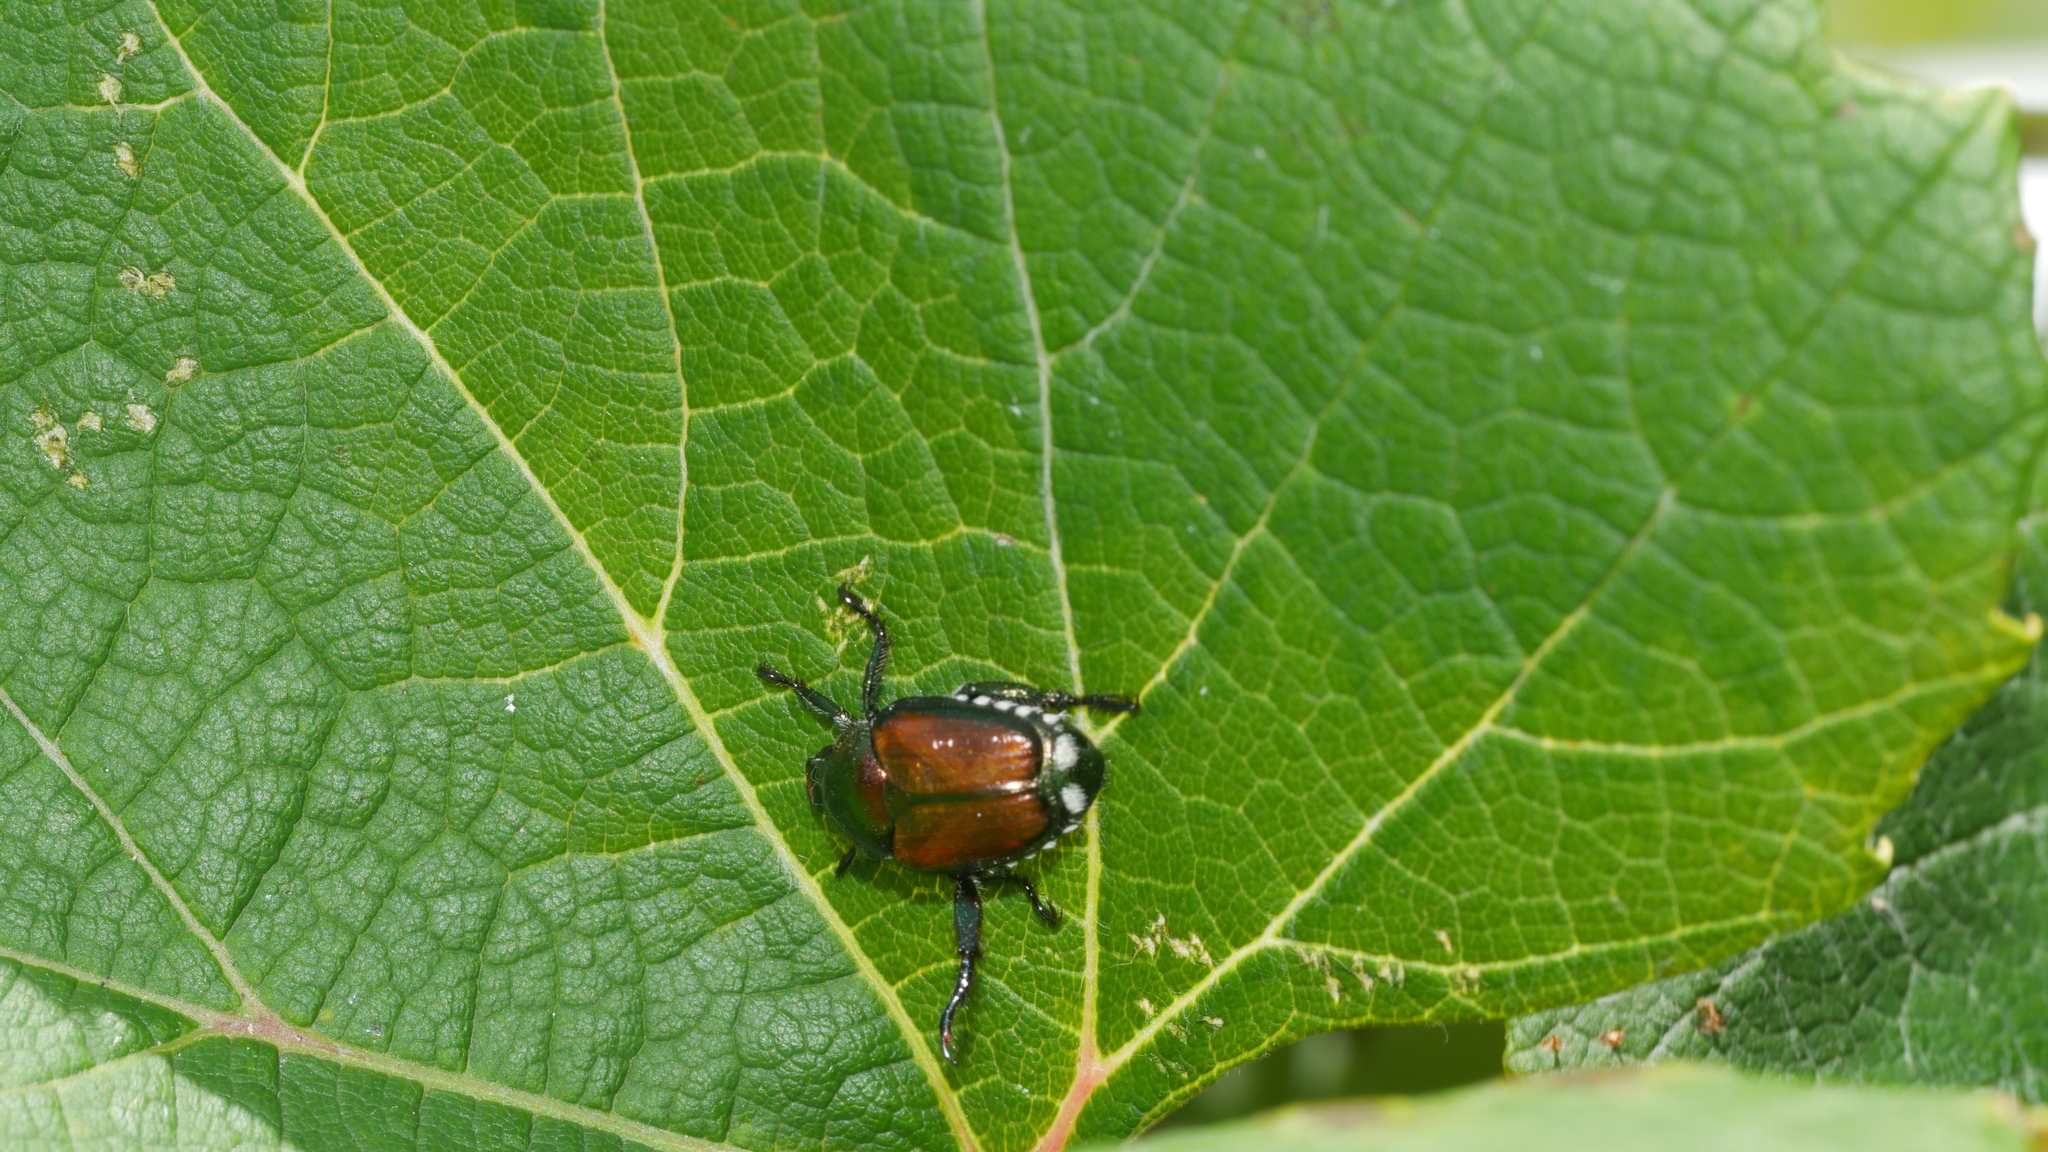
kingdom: Animalia
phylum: Arthropoda
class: Insecta
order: Coleoptera
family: Scarabaeidae
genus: Popillia
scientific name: Popillia japonica
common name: Japanese beetle
